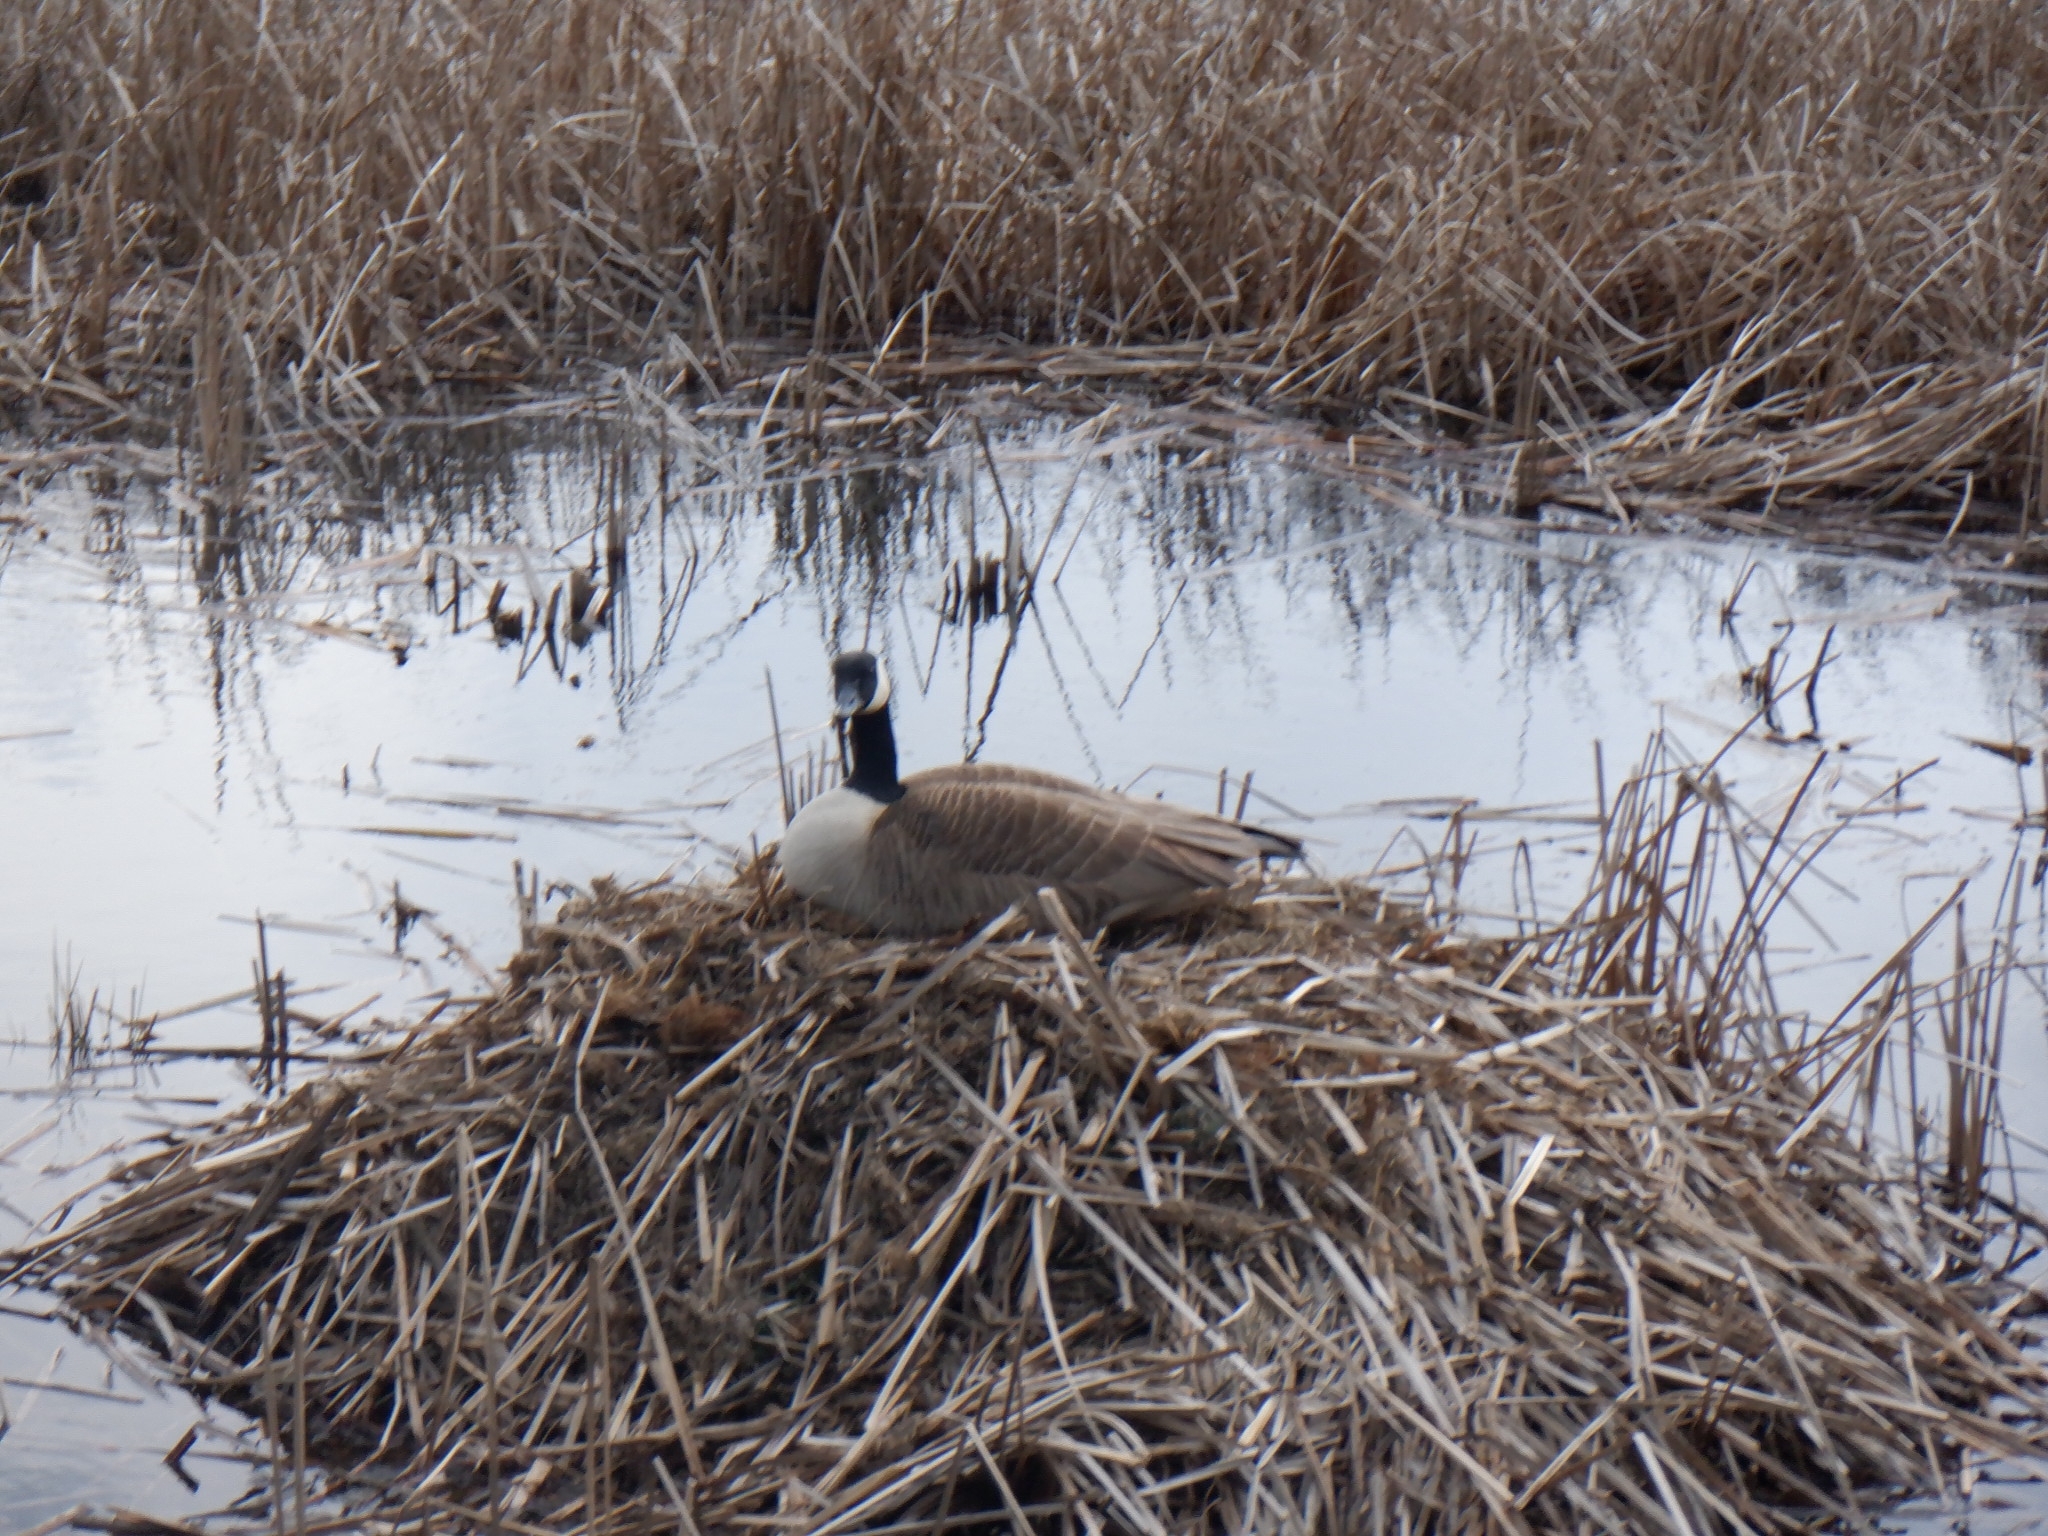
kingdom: Animalia
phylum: Chordata
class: Aves
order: Anseriformes
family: Anatidae
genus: Branta
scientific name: Branta canadensis
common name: Canada goose
